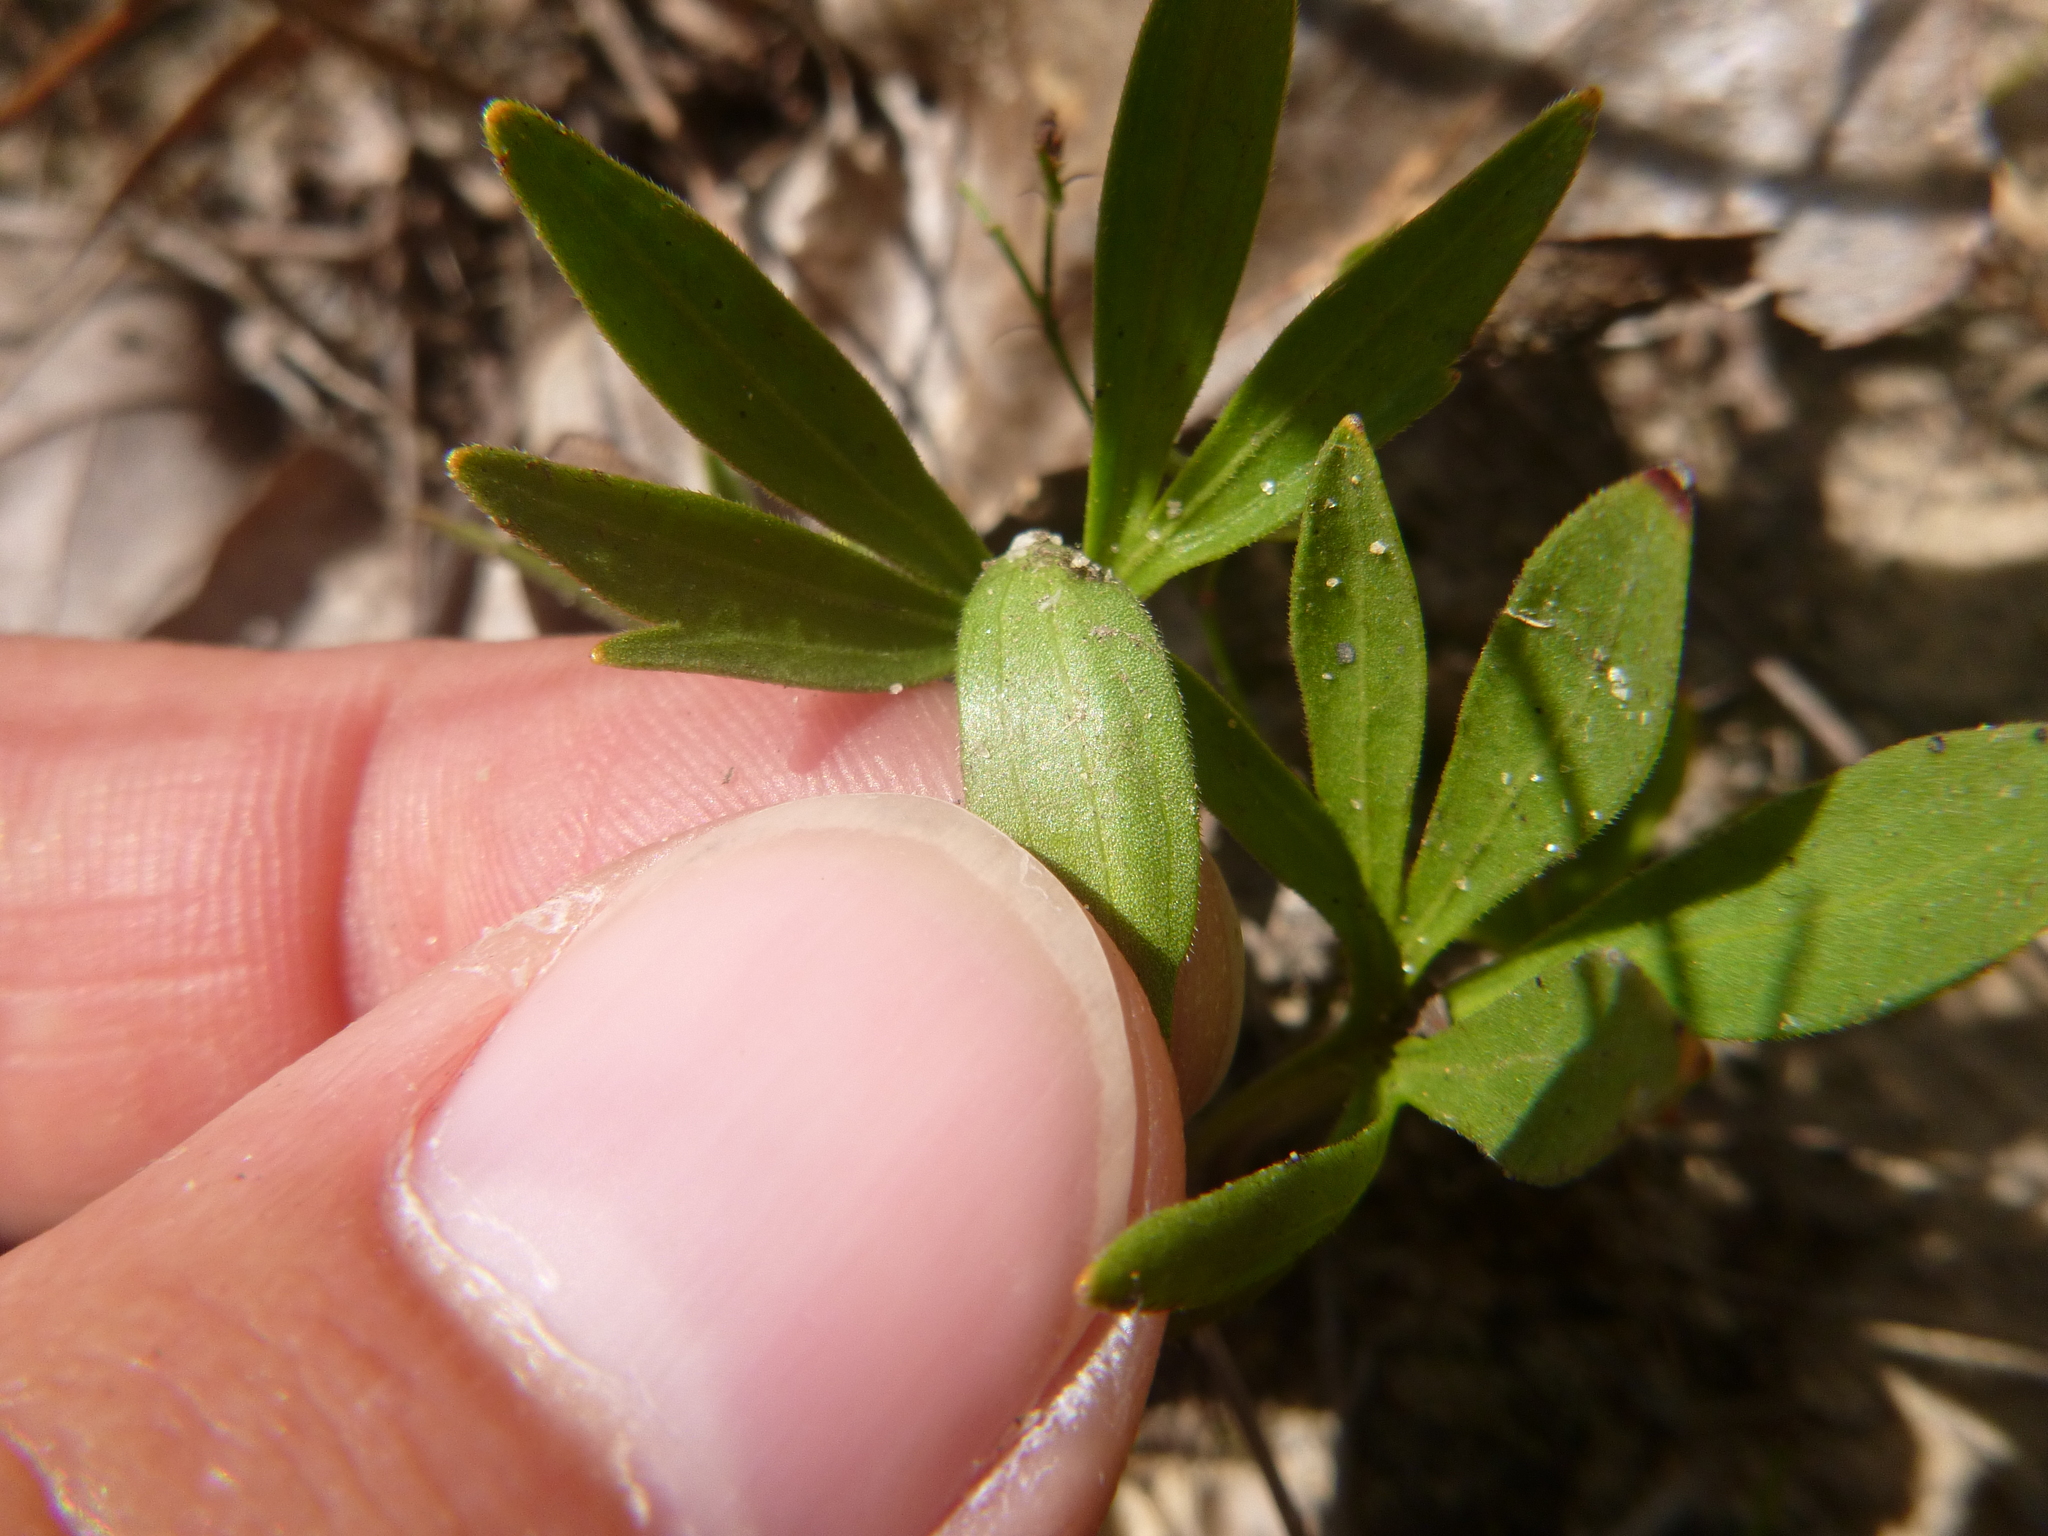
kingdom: Plantae
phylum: Tracheophyta
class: Magnoliopsida
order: Malpighiales
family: Violaceae
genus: Viola
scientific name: Viola pedata
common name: Pansy violet
